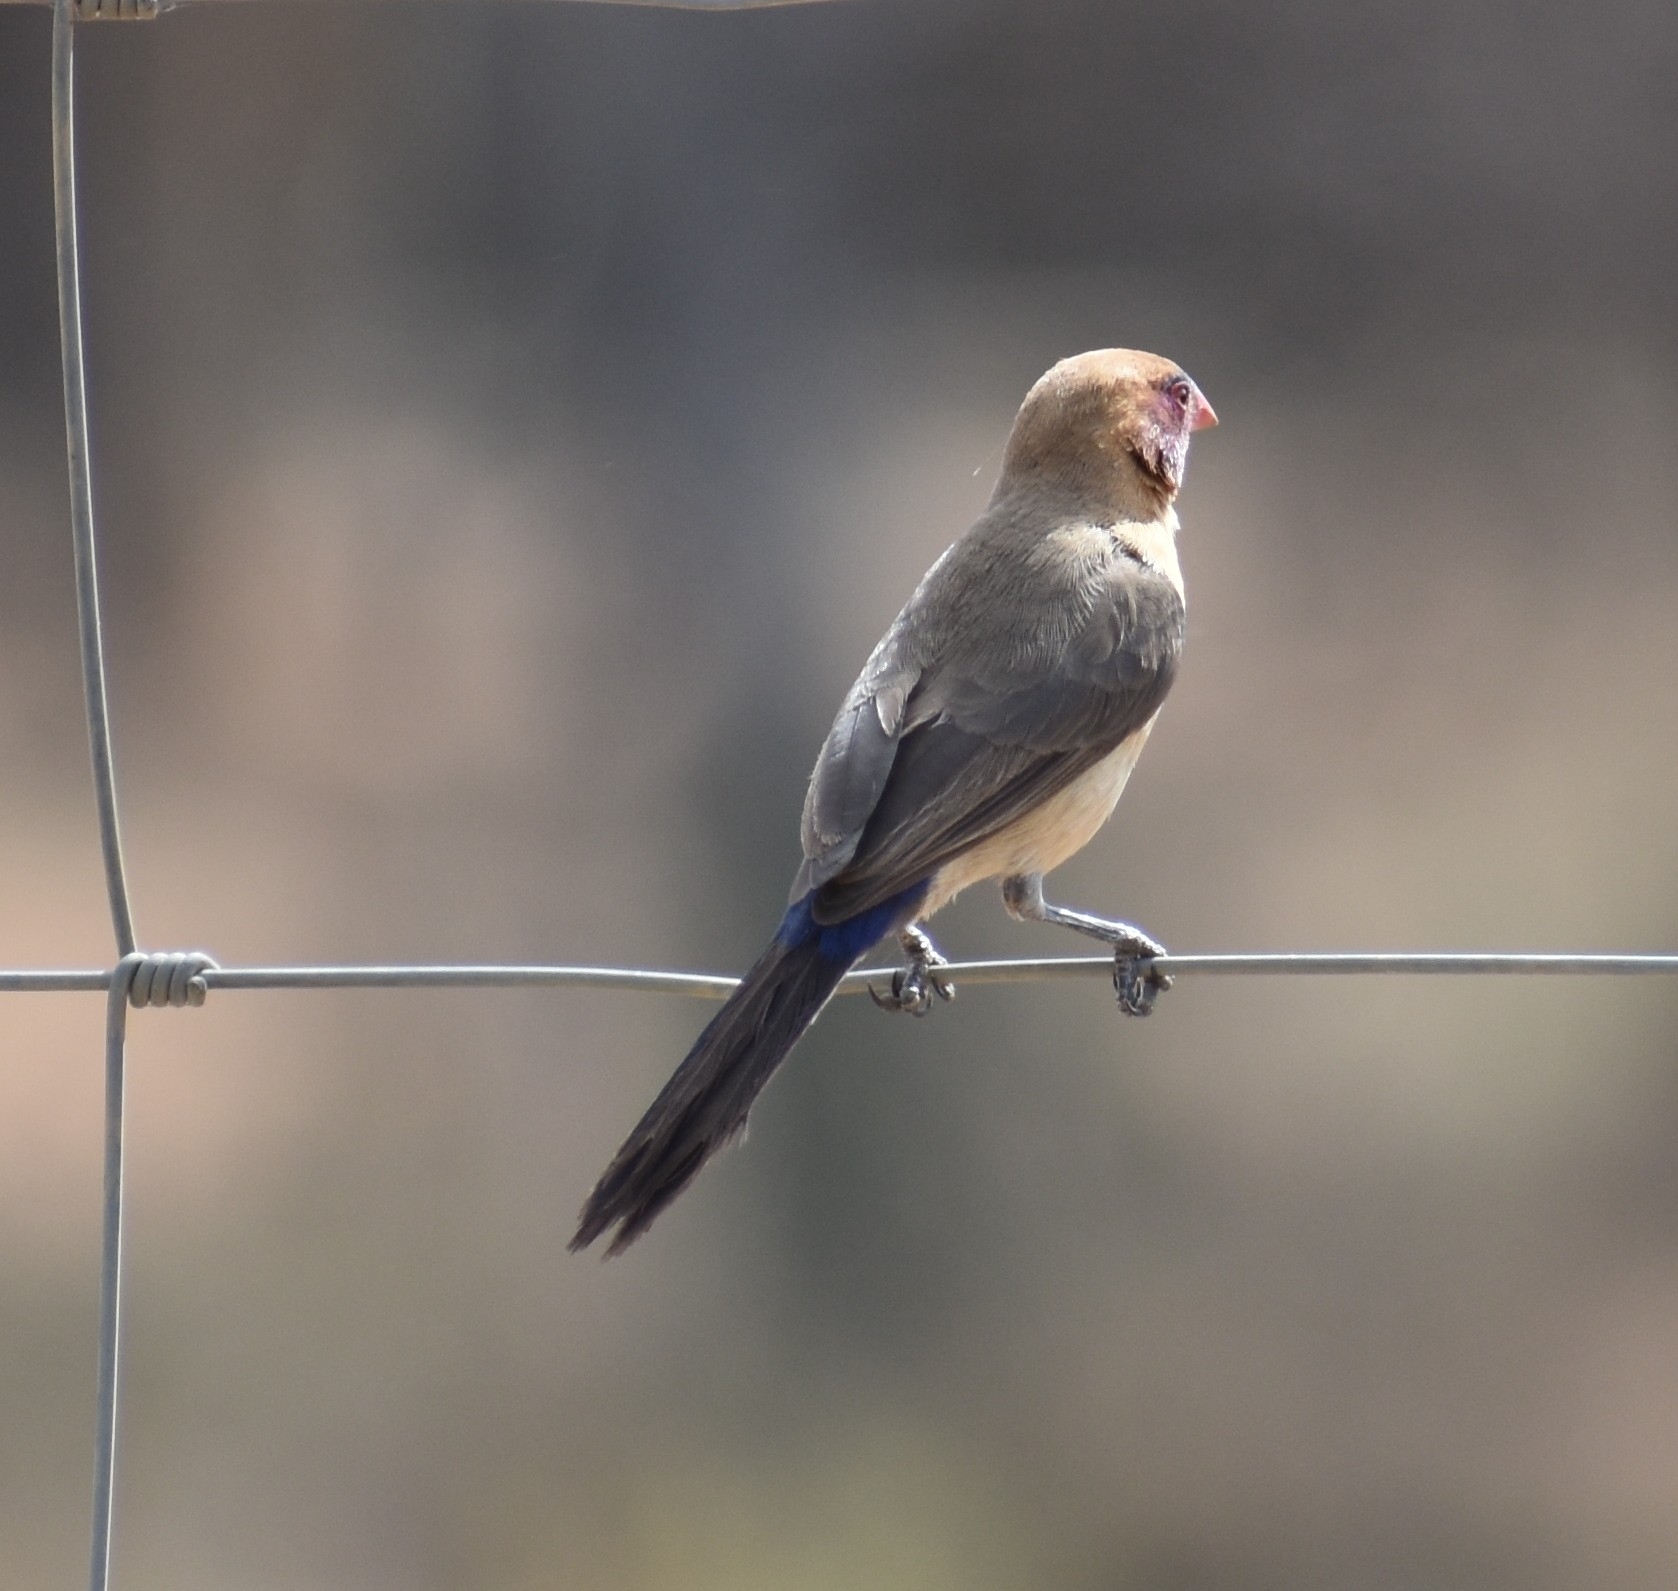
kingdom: Animalia
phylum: Chordata
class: Aves
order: Passeriformes
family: Estrildidae
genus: Uraeginthus
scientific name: Uraeginthus granatinus
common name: Violet-eared waxbill
